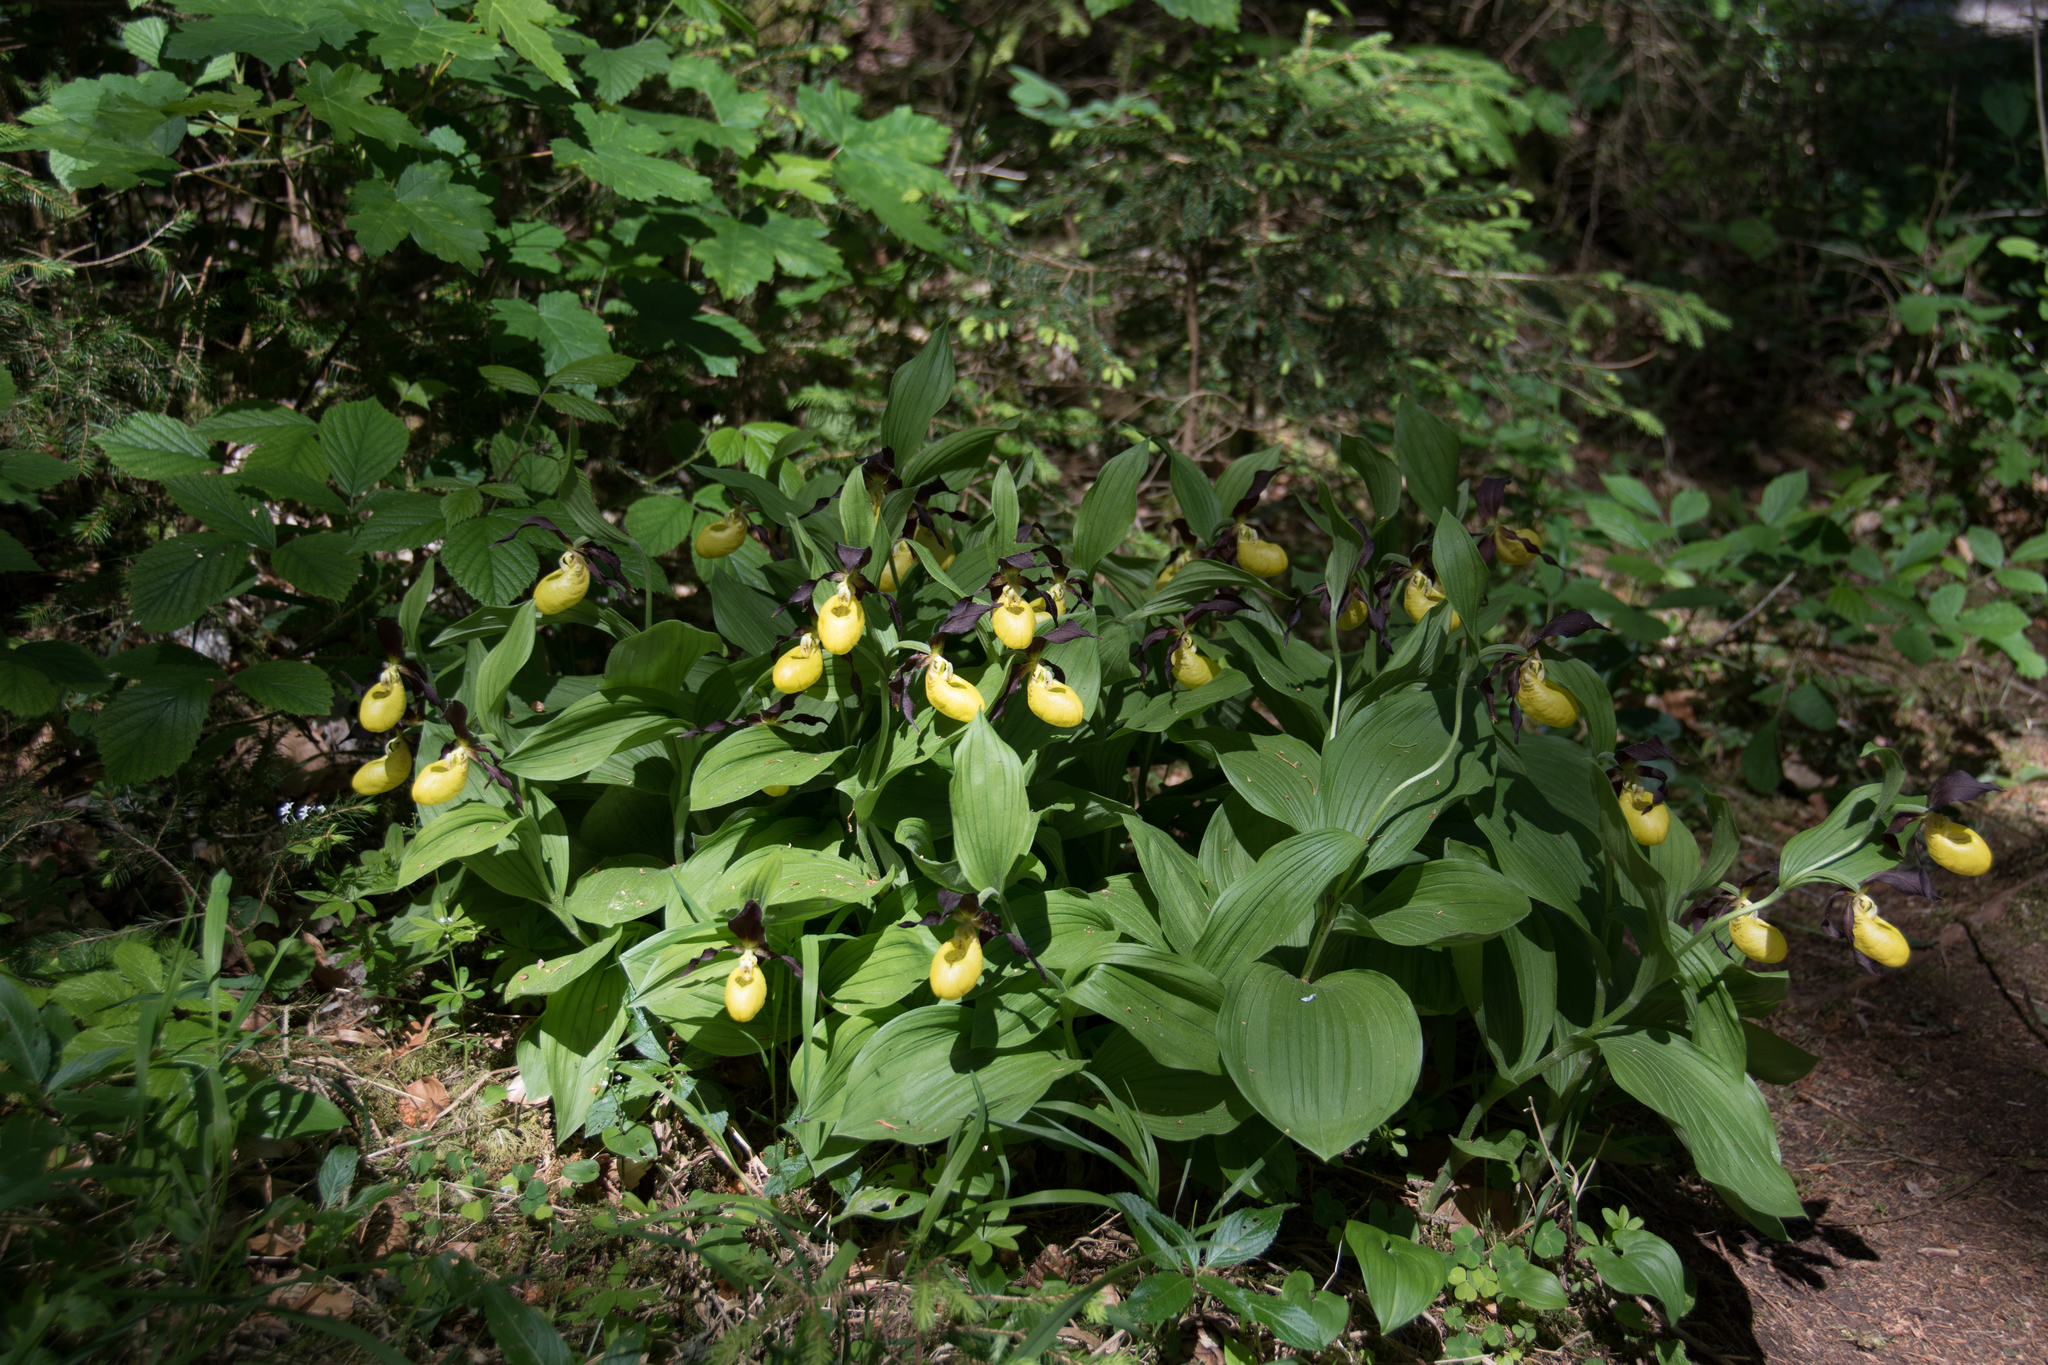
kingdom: Plantae
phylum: Tracheophyta
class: Liliopsida
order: Asparagales
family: Orchidaceae
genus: Cypripedium
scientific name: Cypripedium calceolus
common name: Lady's-slipper
